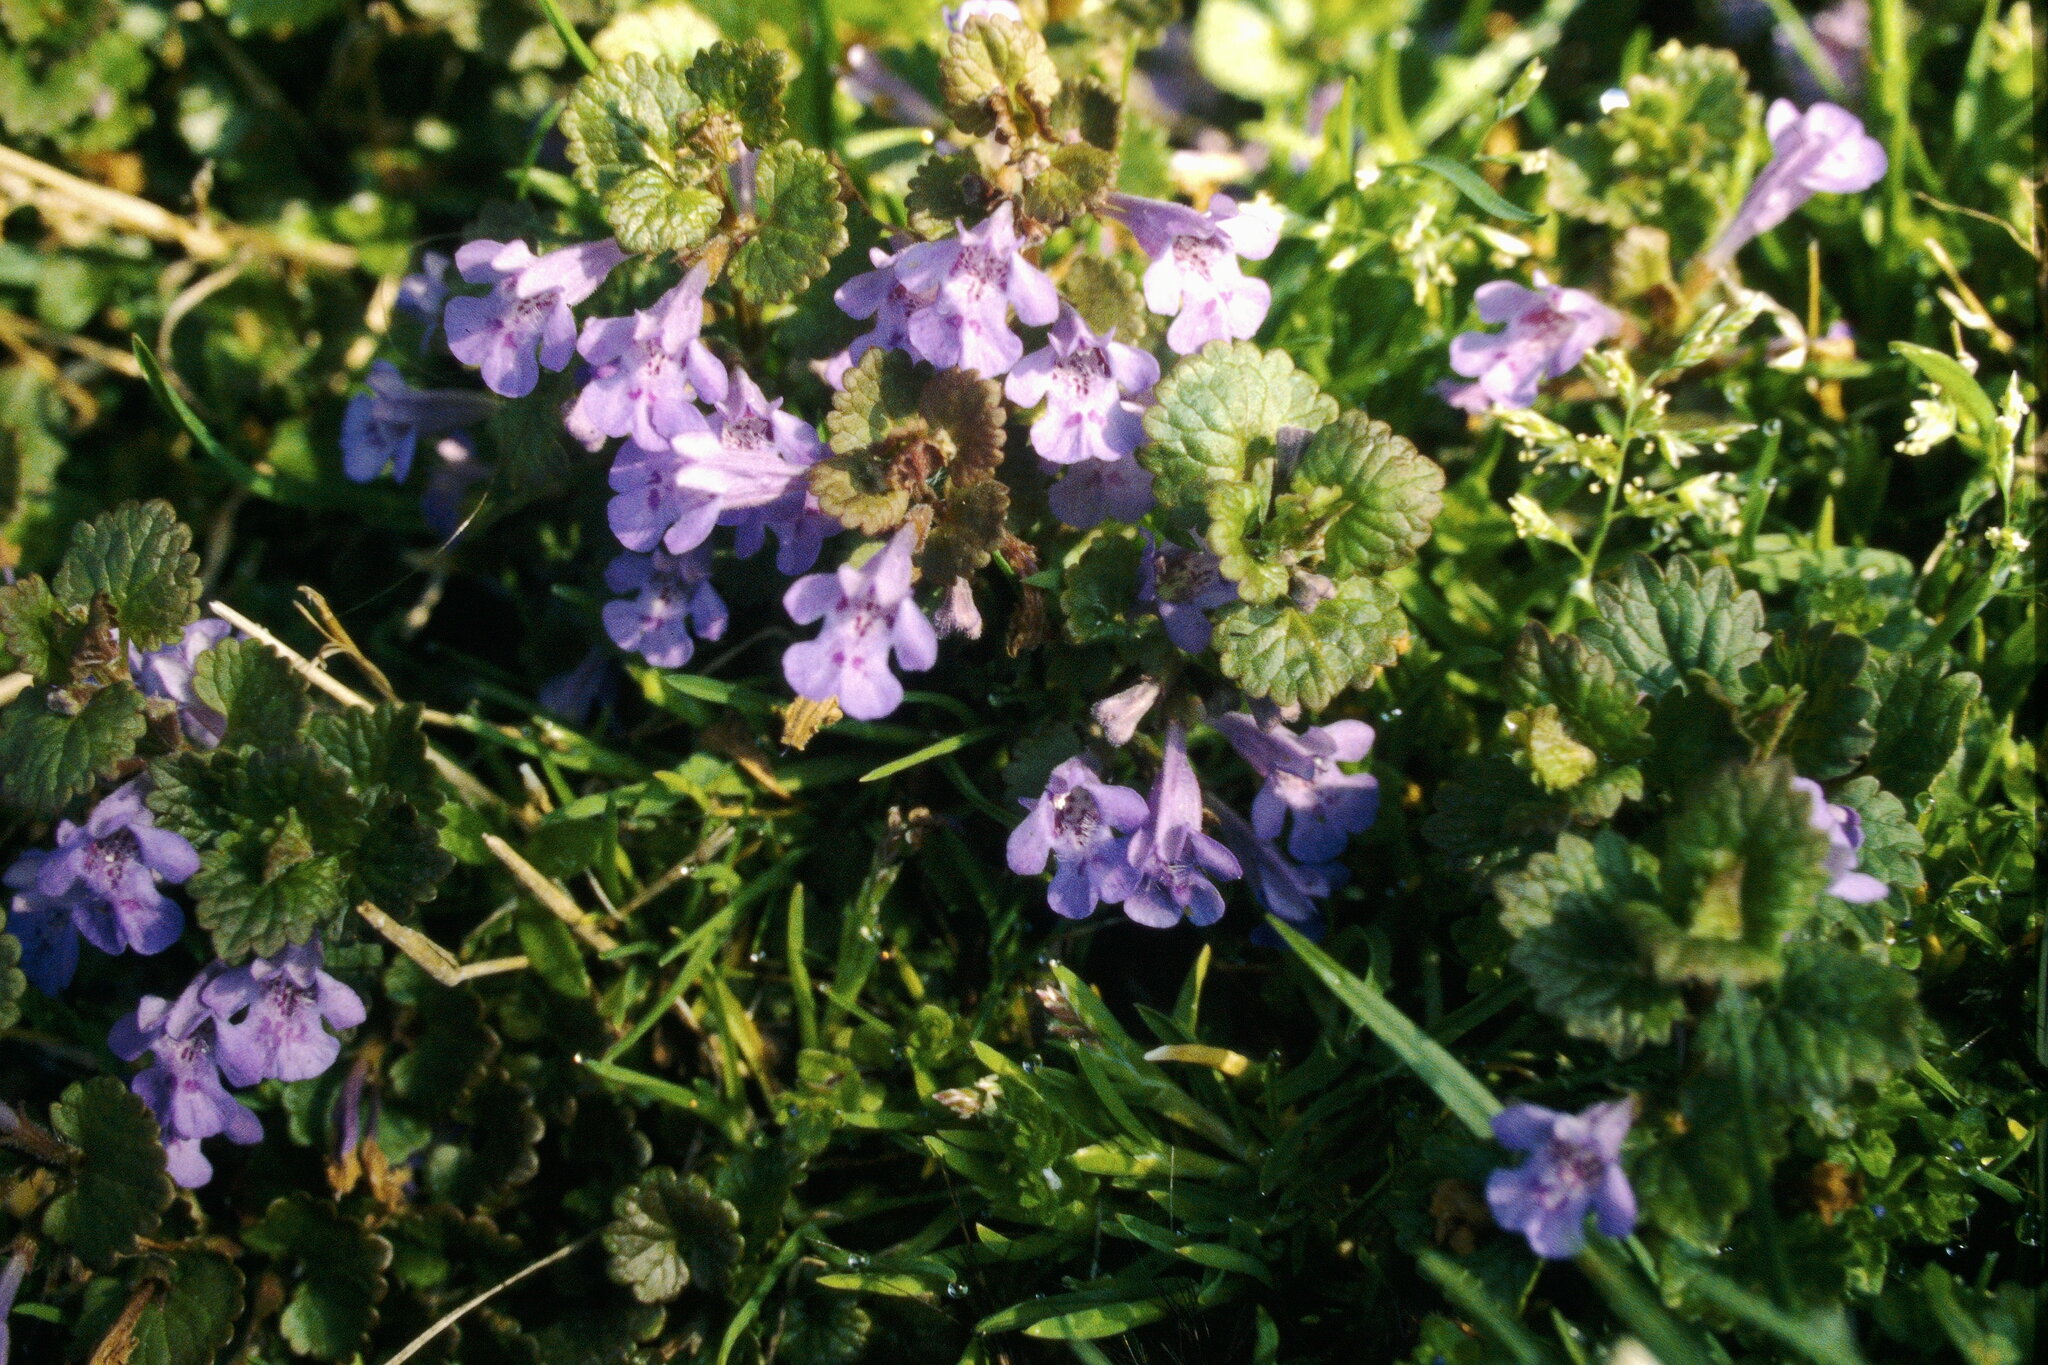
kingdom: Plantae
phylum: Tracheophyta
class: Magnoliopsida
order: Lamiales
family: Lamiaceae
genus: Glechoma
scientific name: Glechoma hederacea
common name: Ground ivy
